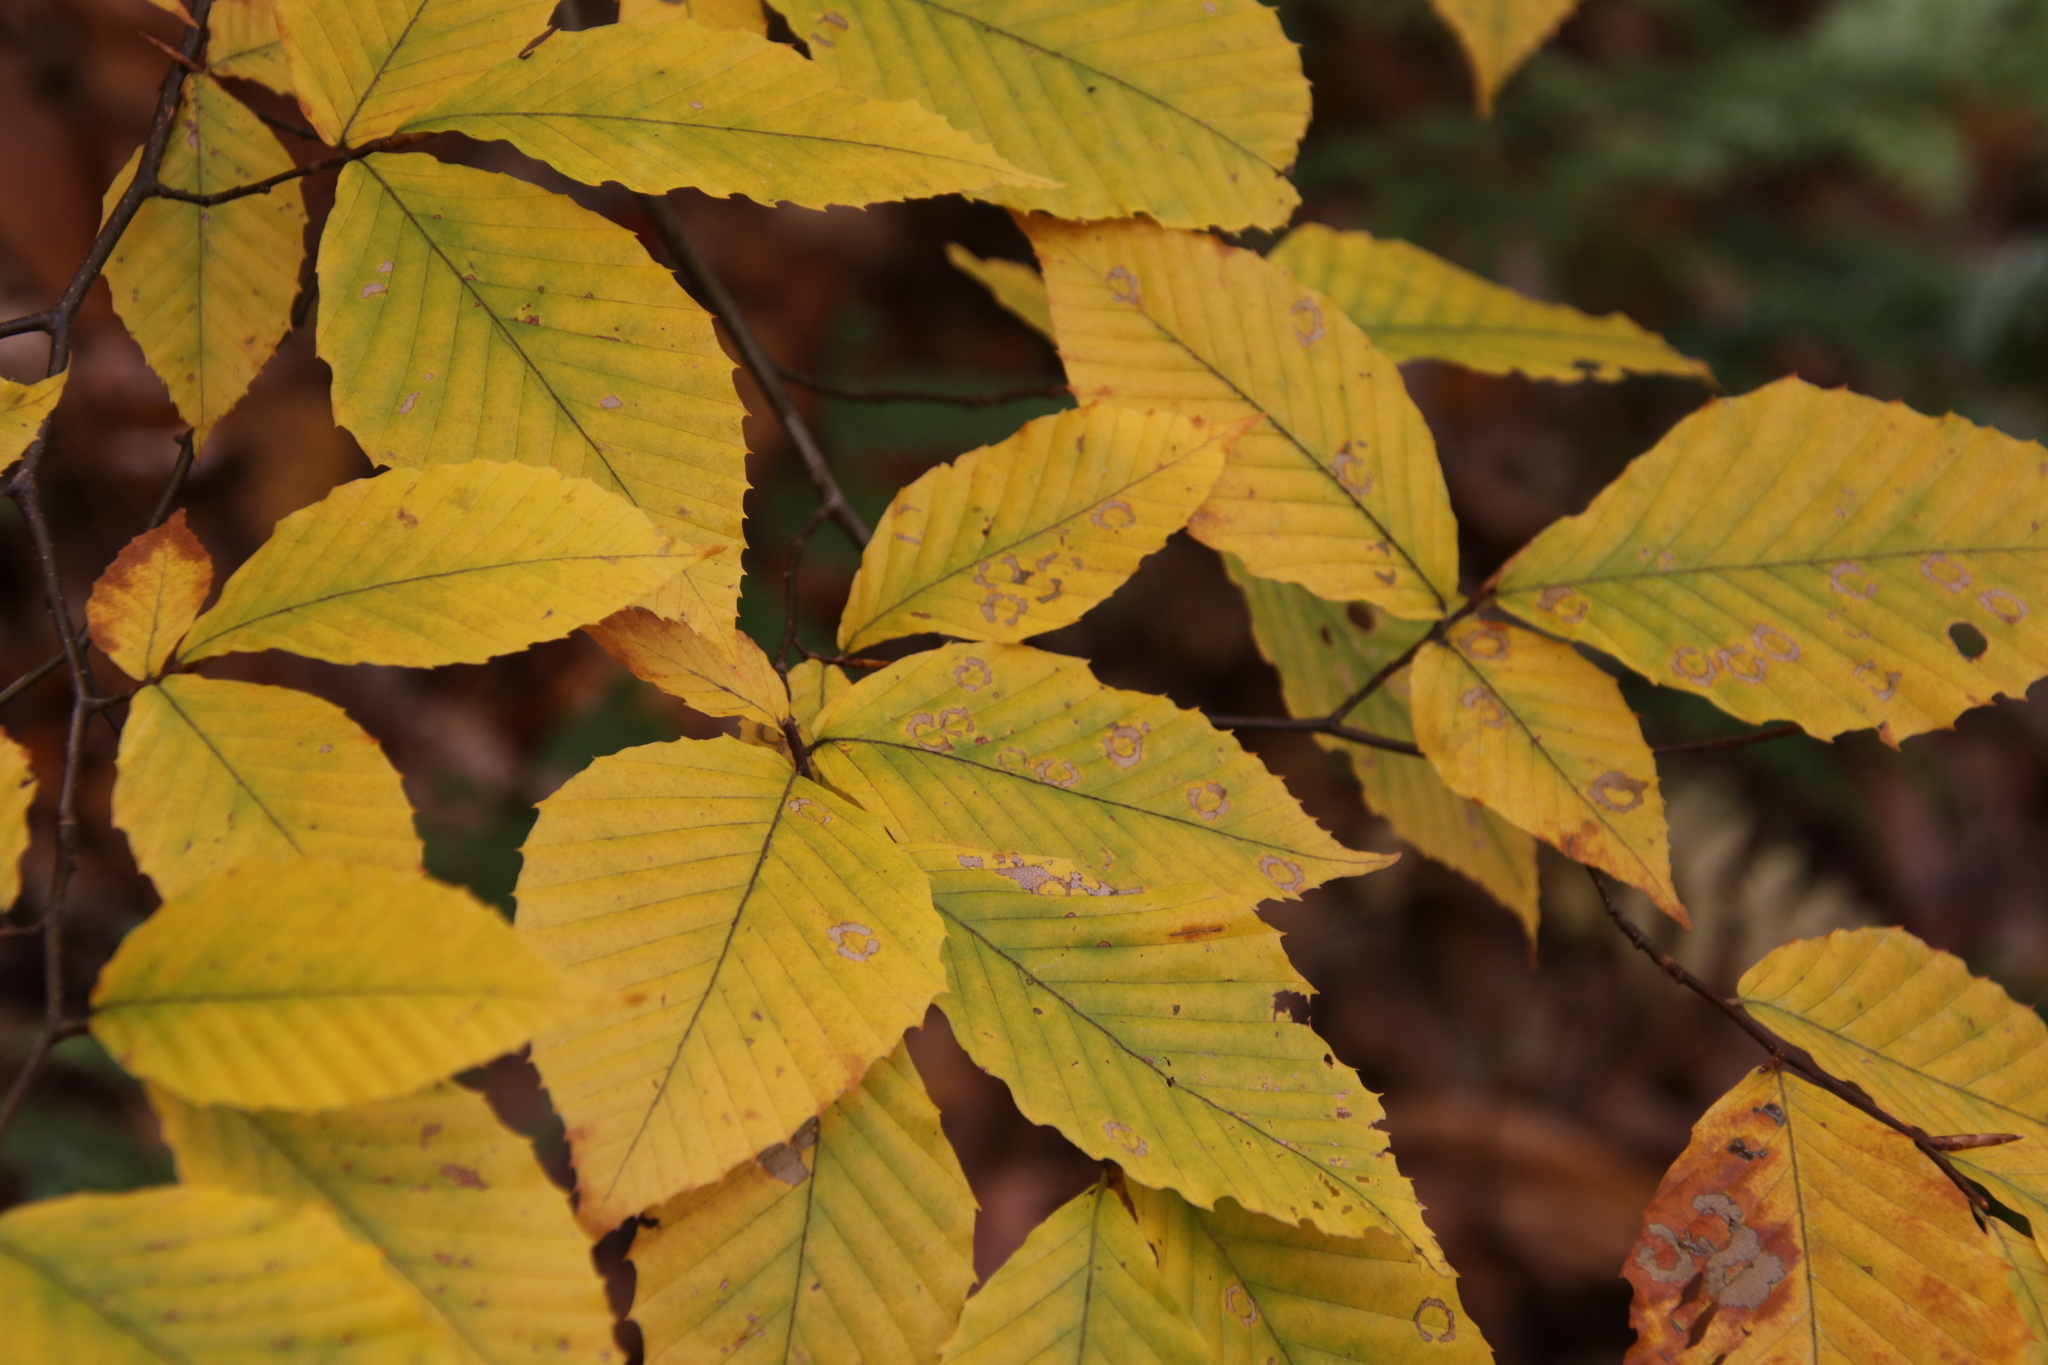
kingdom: Plantae
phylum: Tracheophyta
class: Magnoliopsida
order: Fagales
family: Fagaceae
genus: Fagus
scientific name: Fagus grandifolia
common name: American beech
